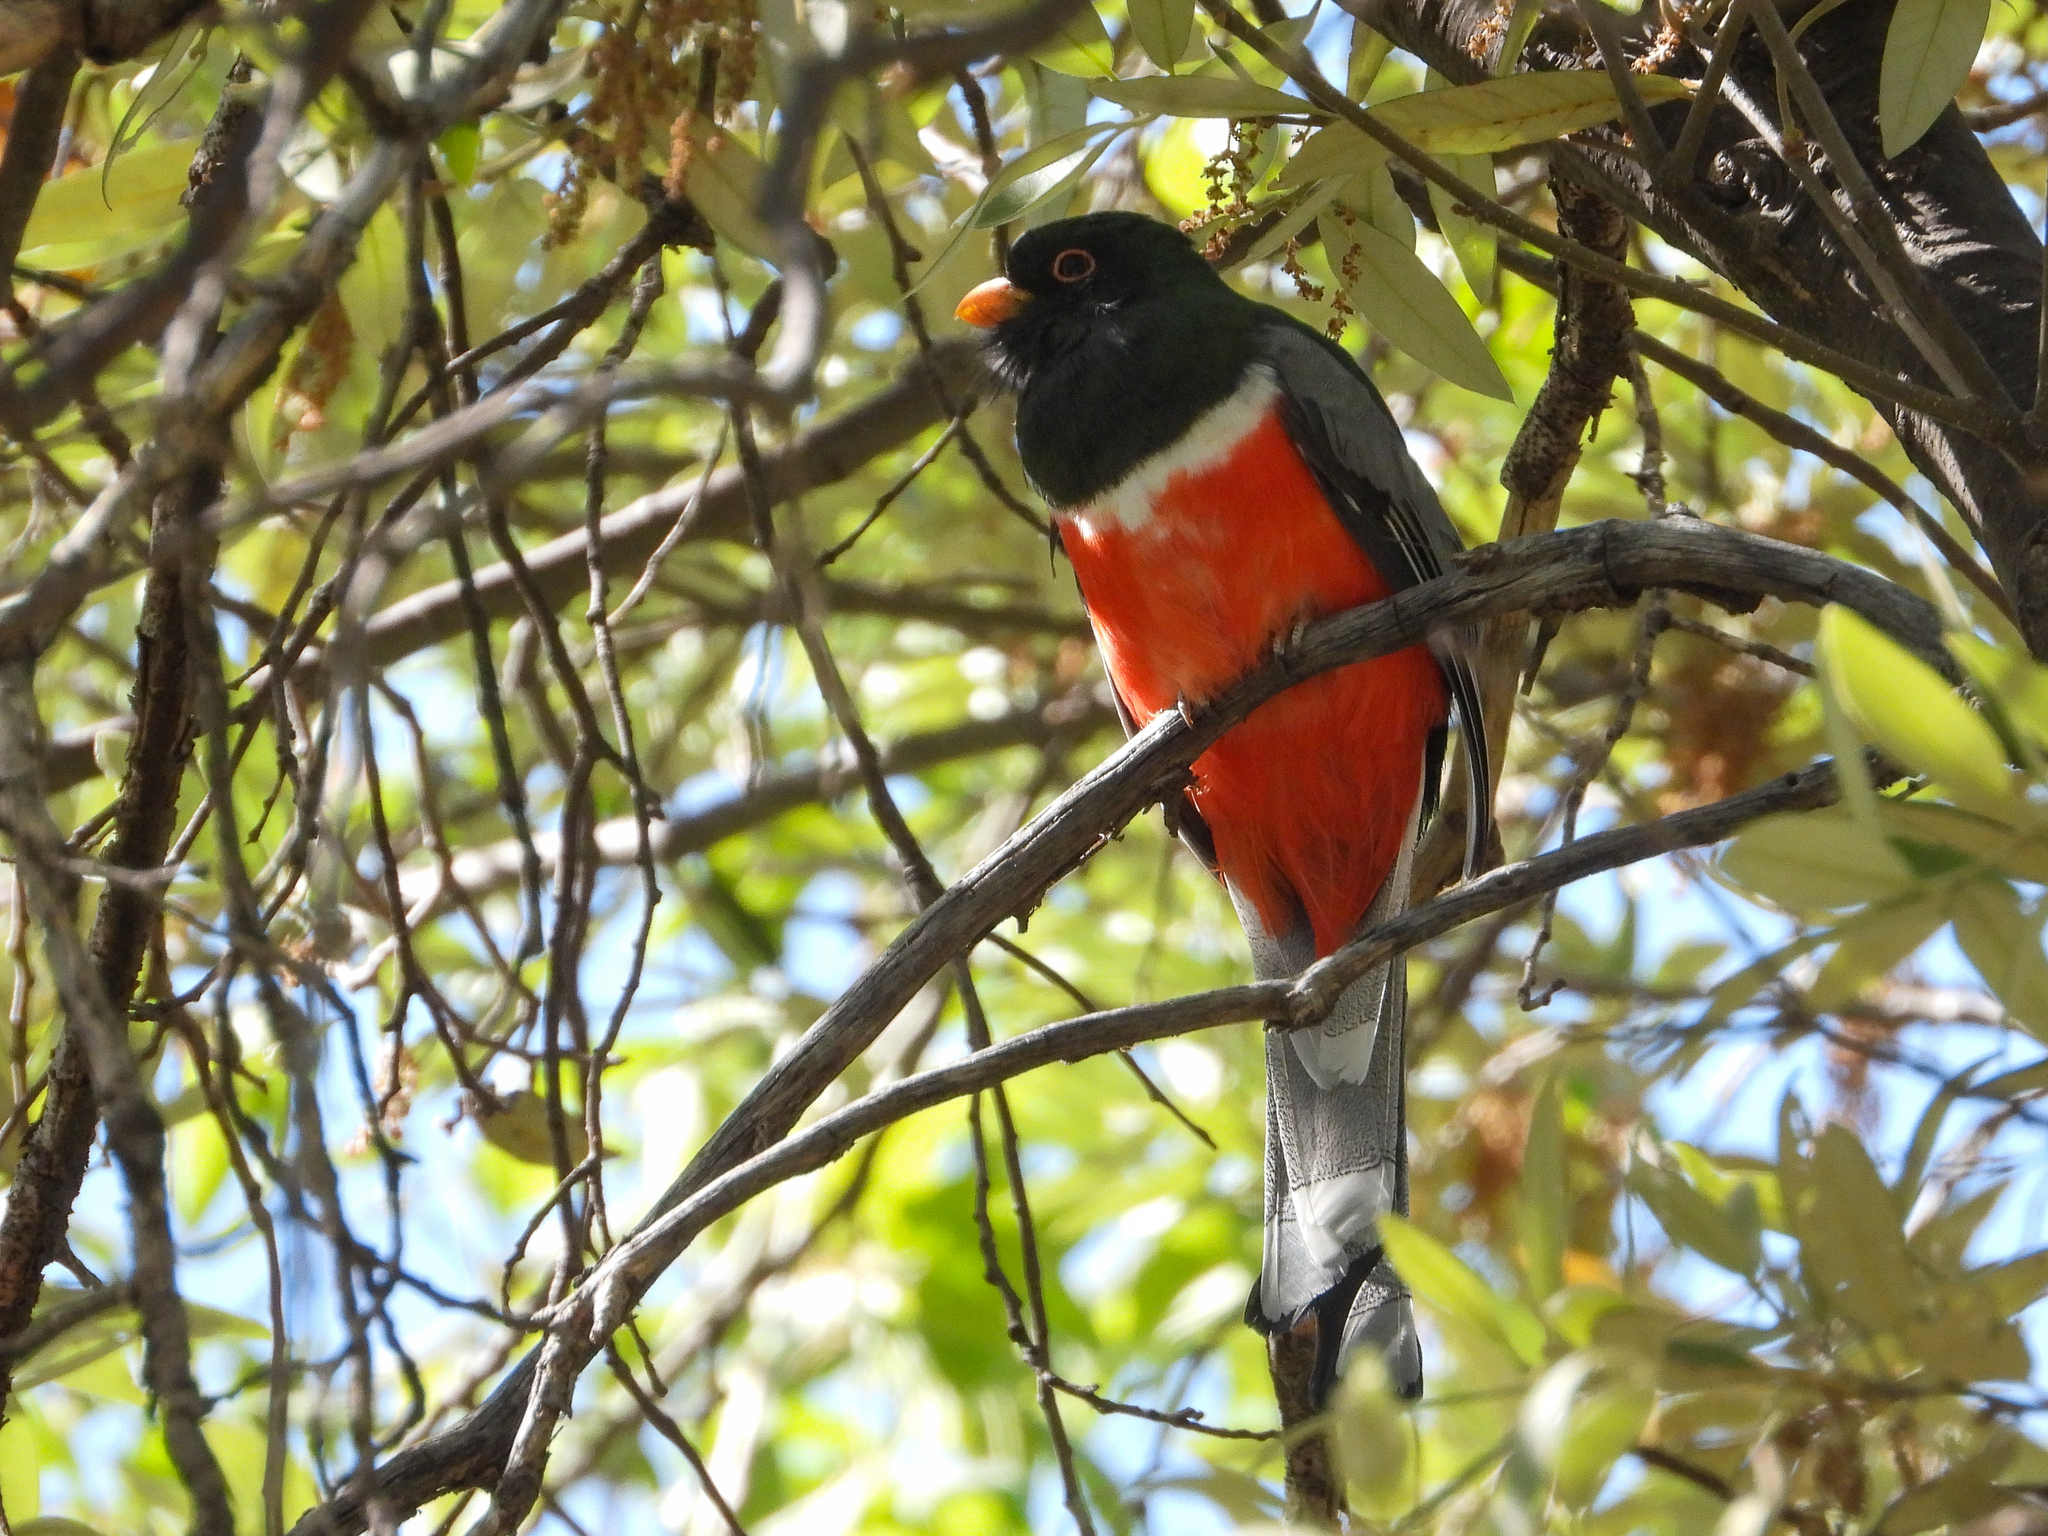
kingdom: Animalia
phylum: Chordata
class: Aves
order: Trogoniformes
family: Trogonidae
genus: Trogon
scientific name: Trogon elegans
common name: Elegant trogon
